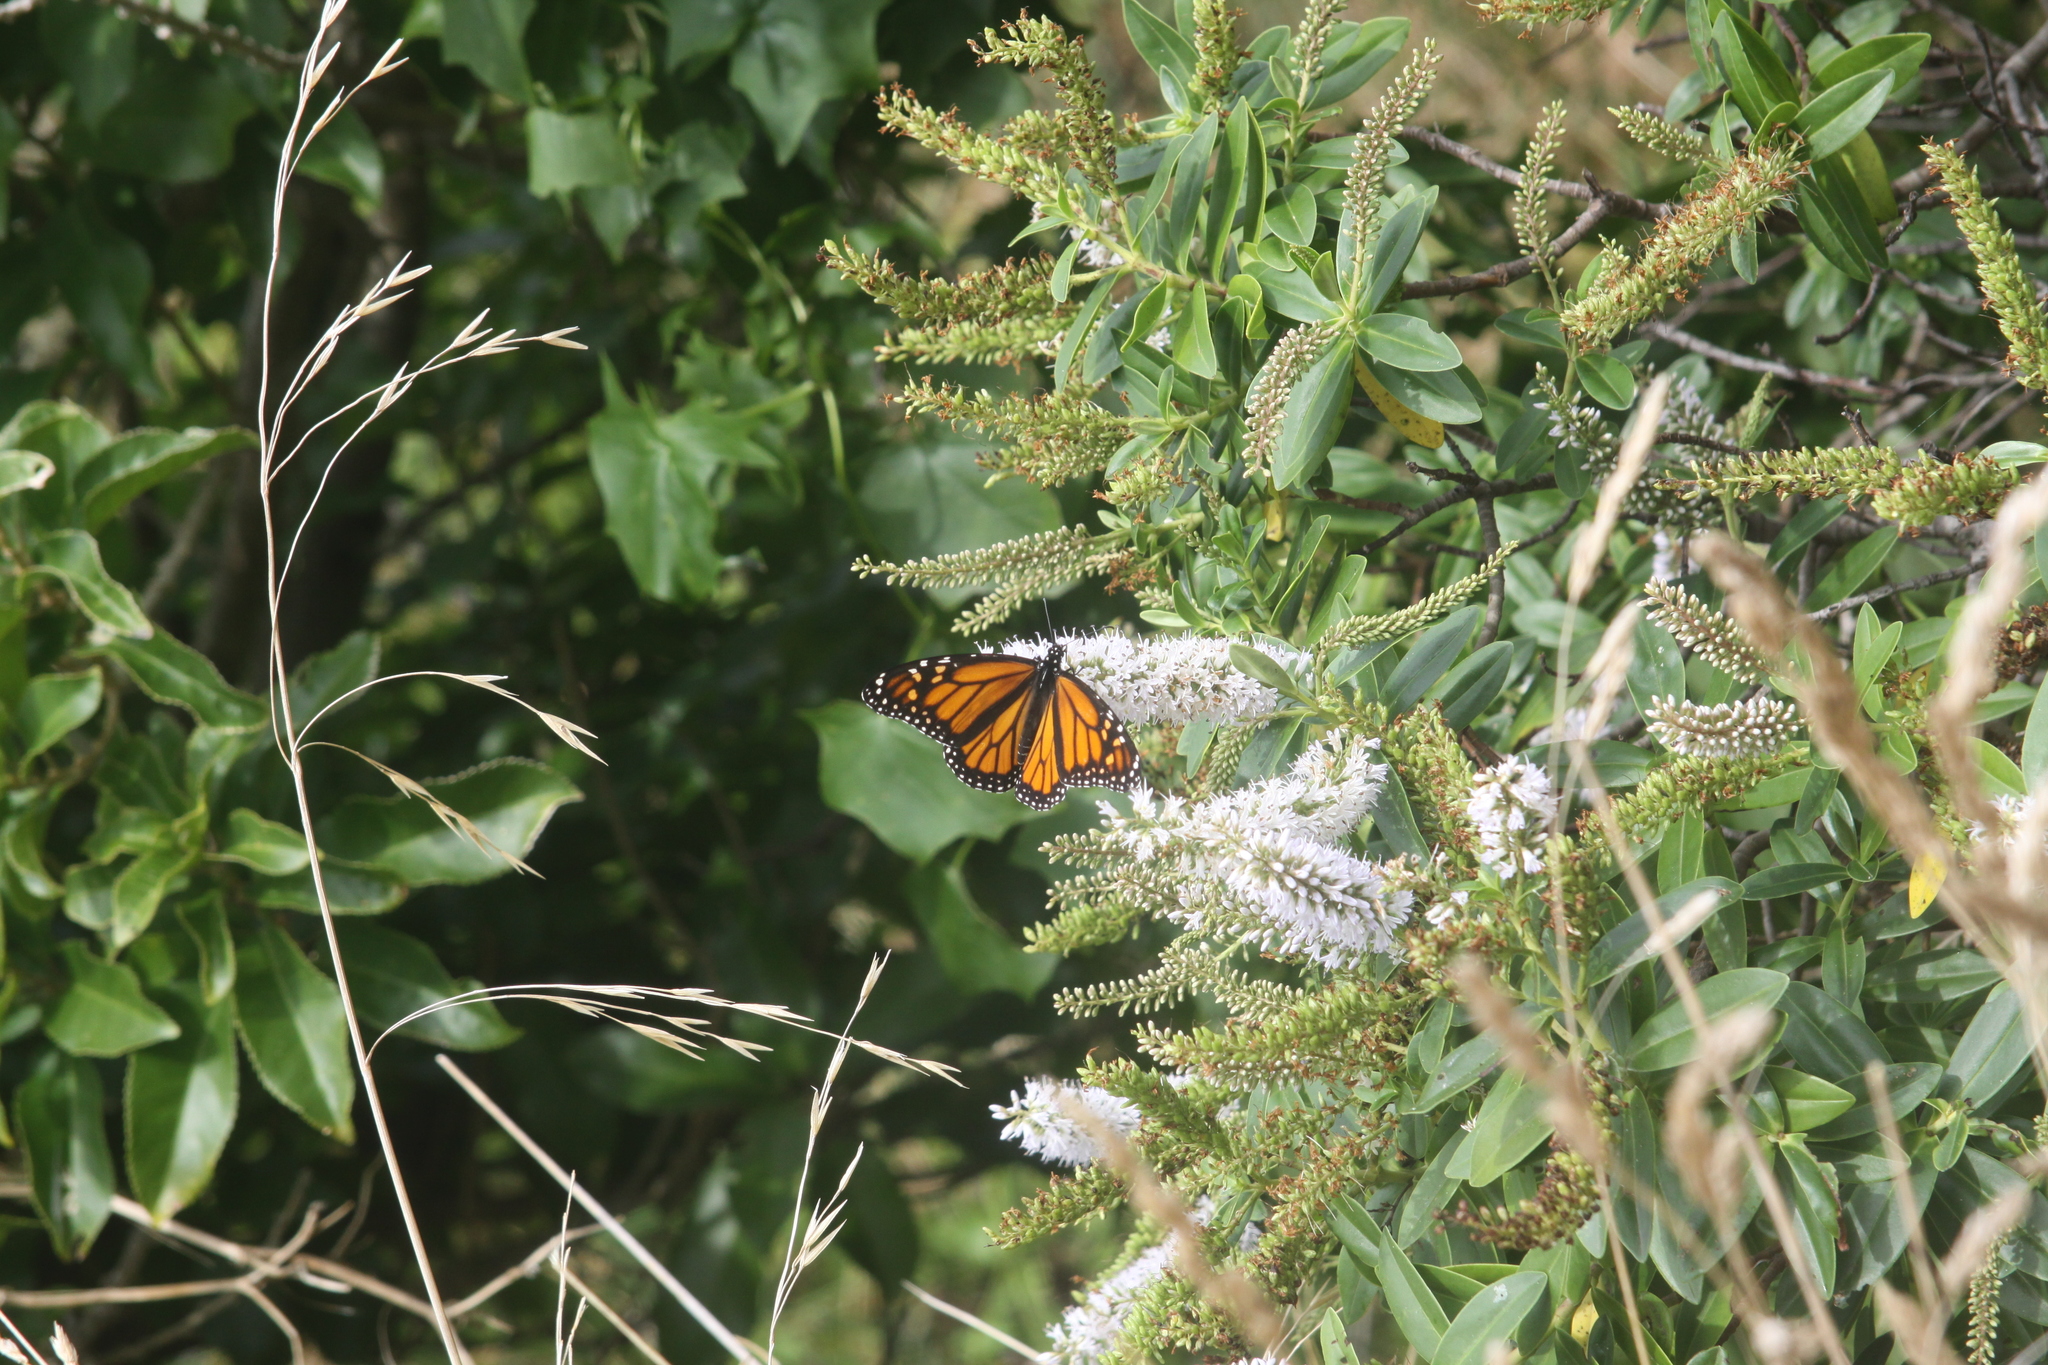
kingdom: Animalia
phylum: Arthropoda
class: Insecta
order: Lepidoptera
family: Nymphalidae
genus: Danaus
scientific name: Danaus plexippus
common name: Monarch
